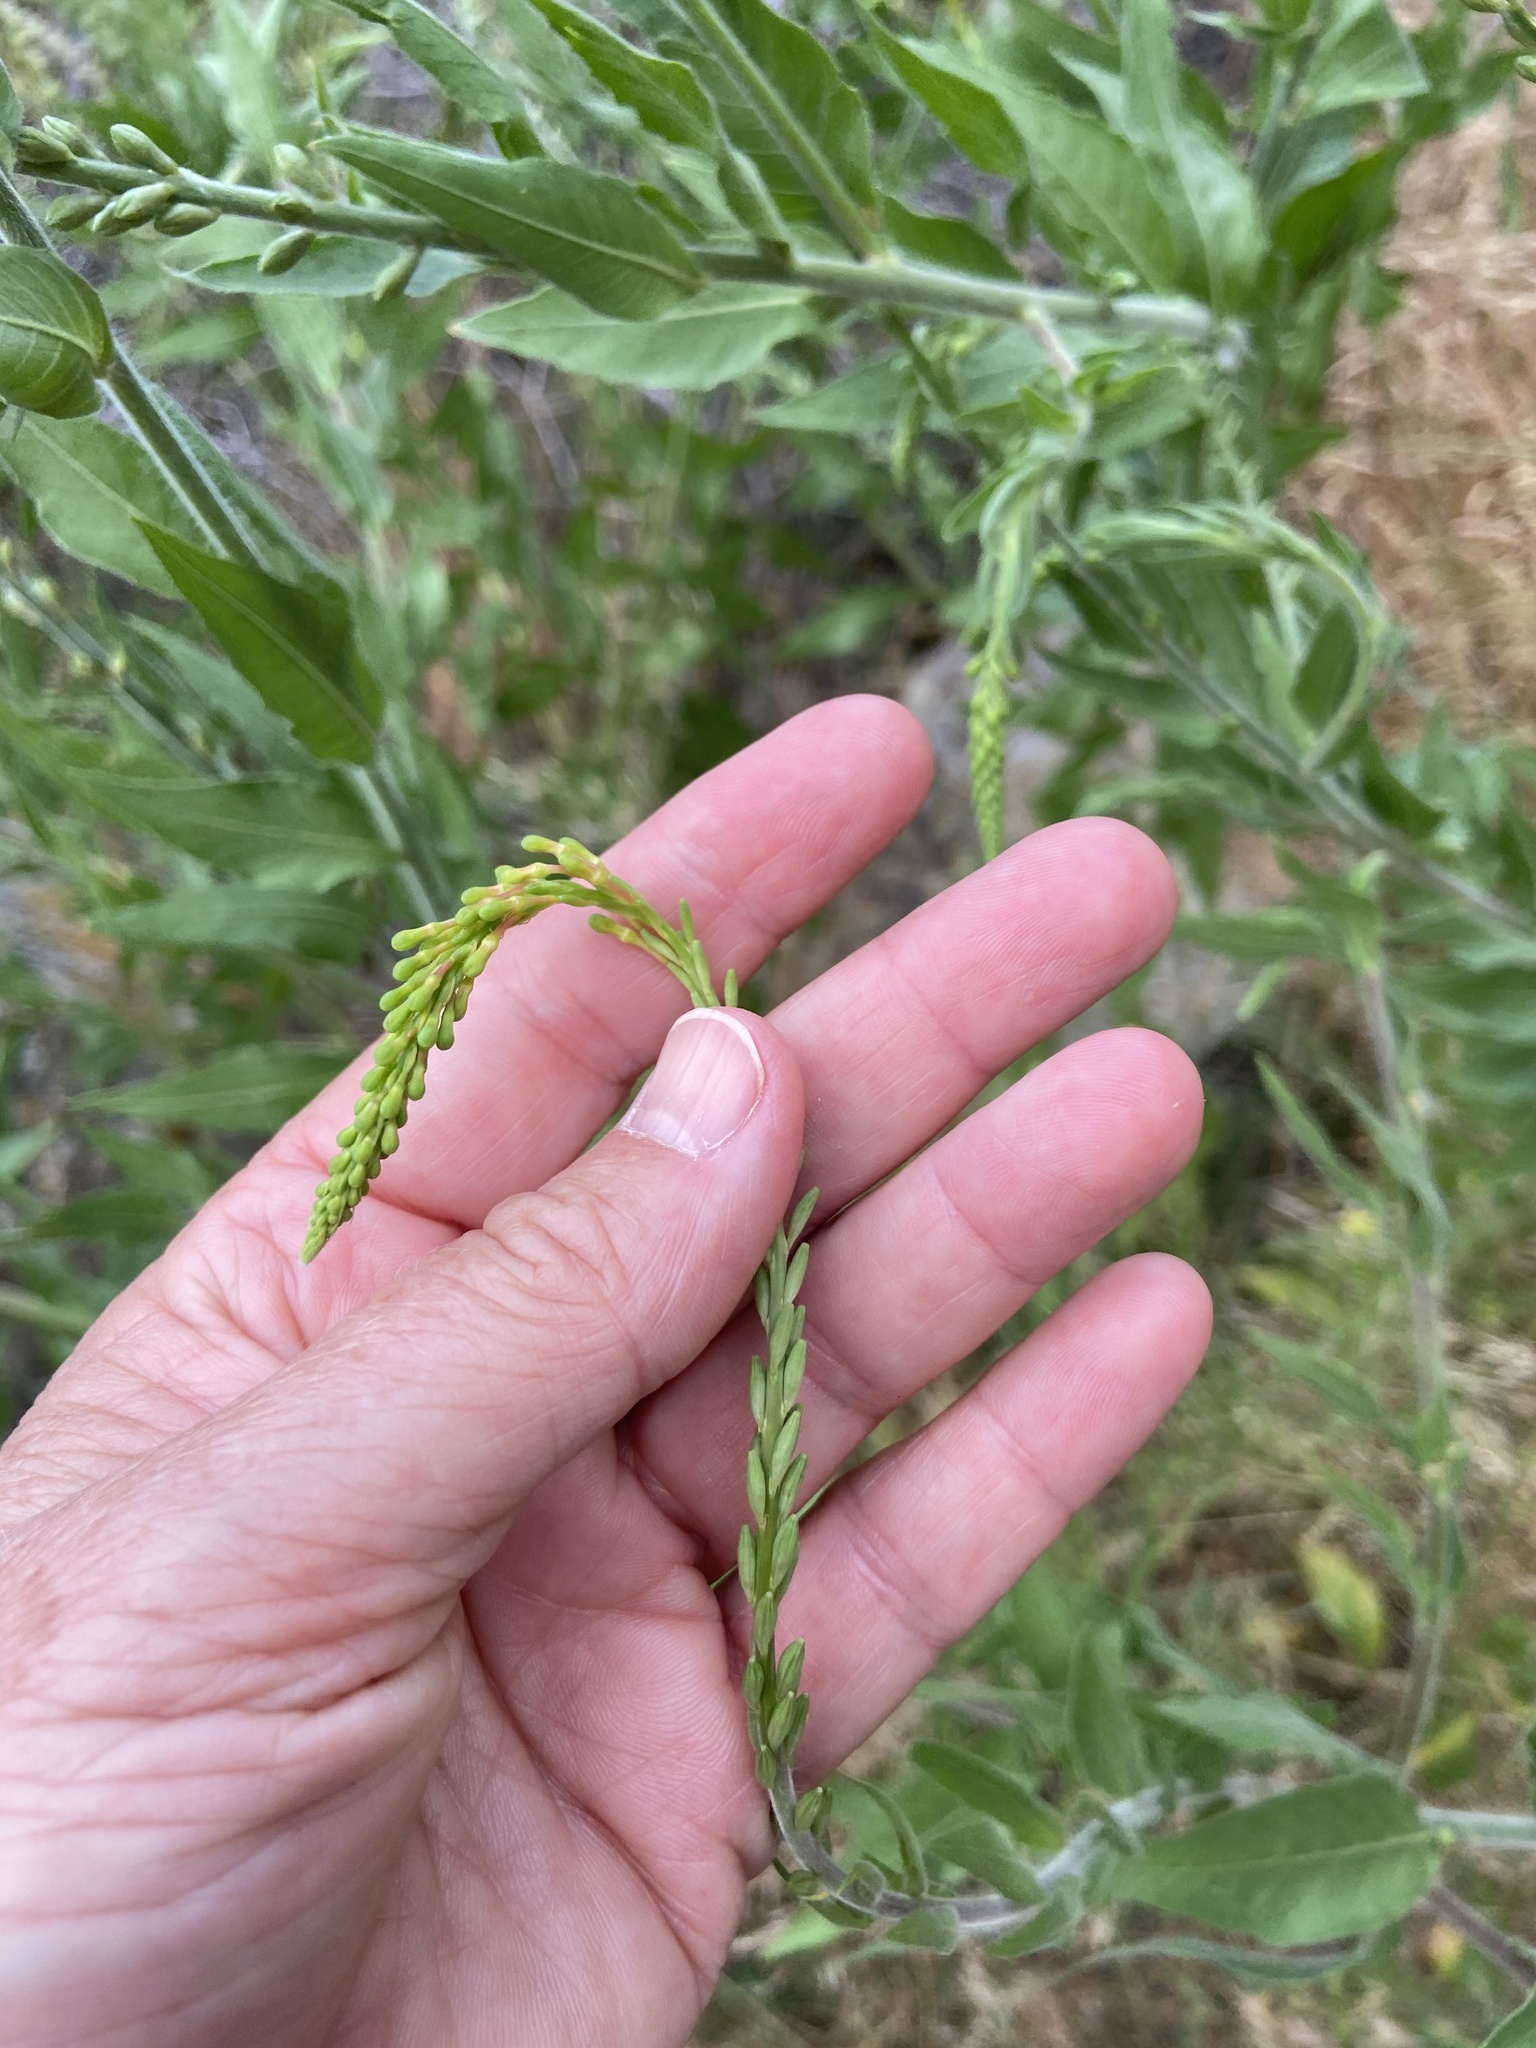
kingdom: Plantae
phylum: Tracheophyta
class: Magnoliopsida
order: Myrtales
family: Onagraceae
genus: Oenothera
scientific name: Oenothera curtiflora
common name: Velvetweed
